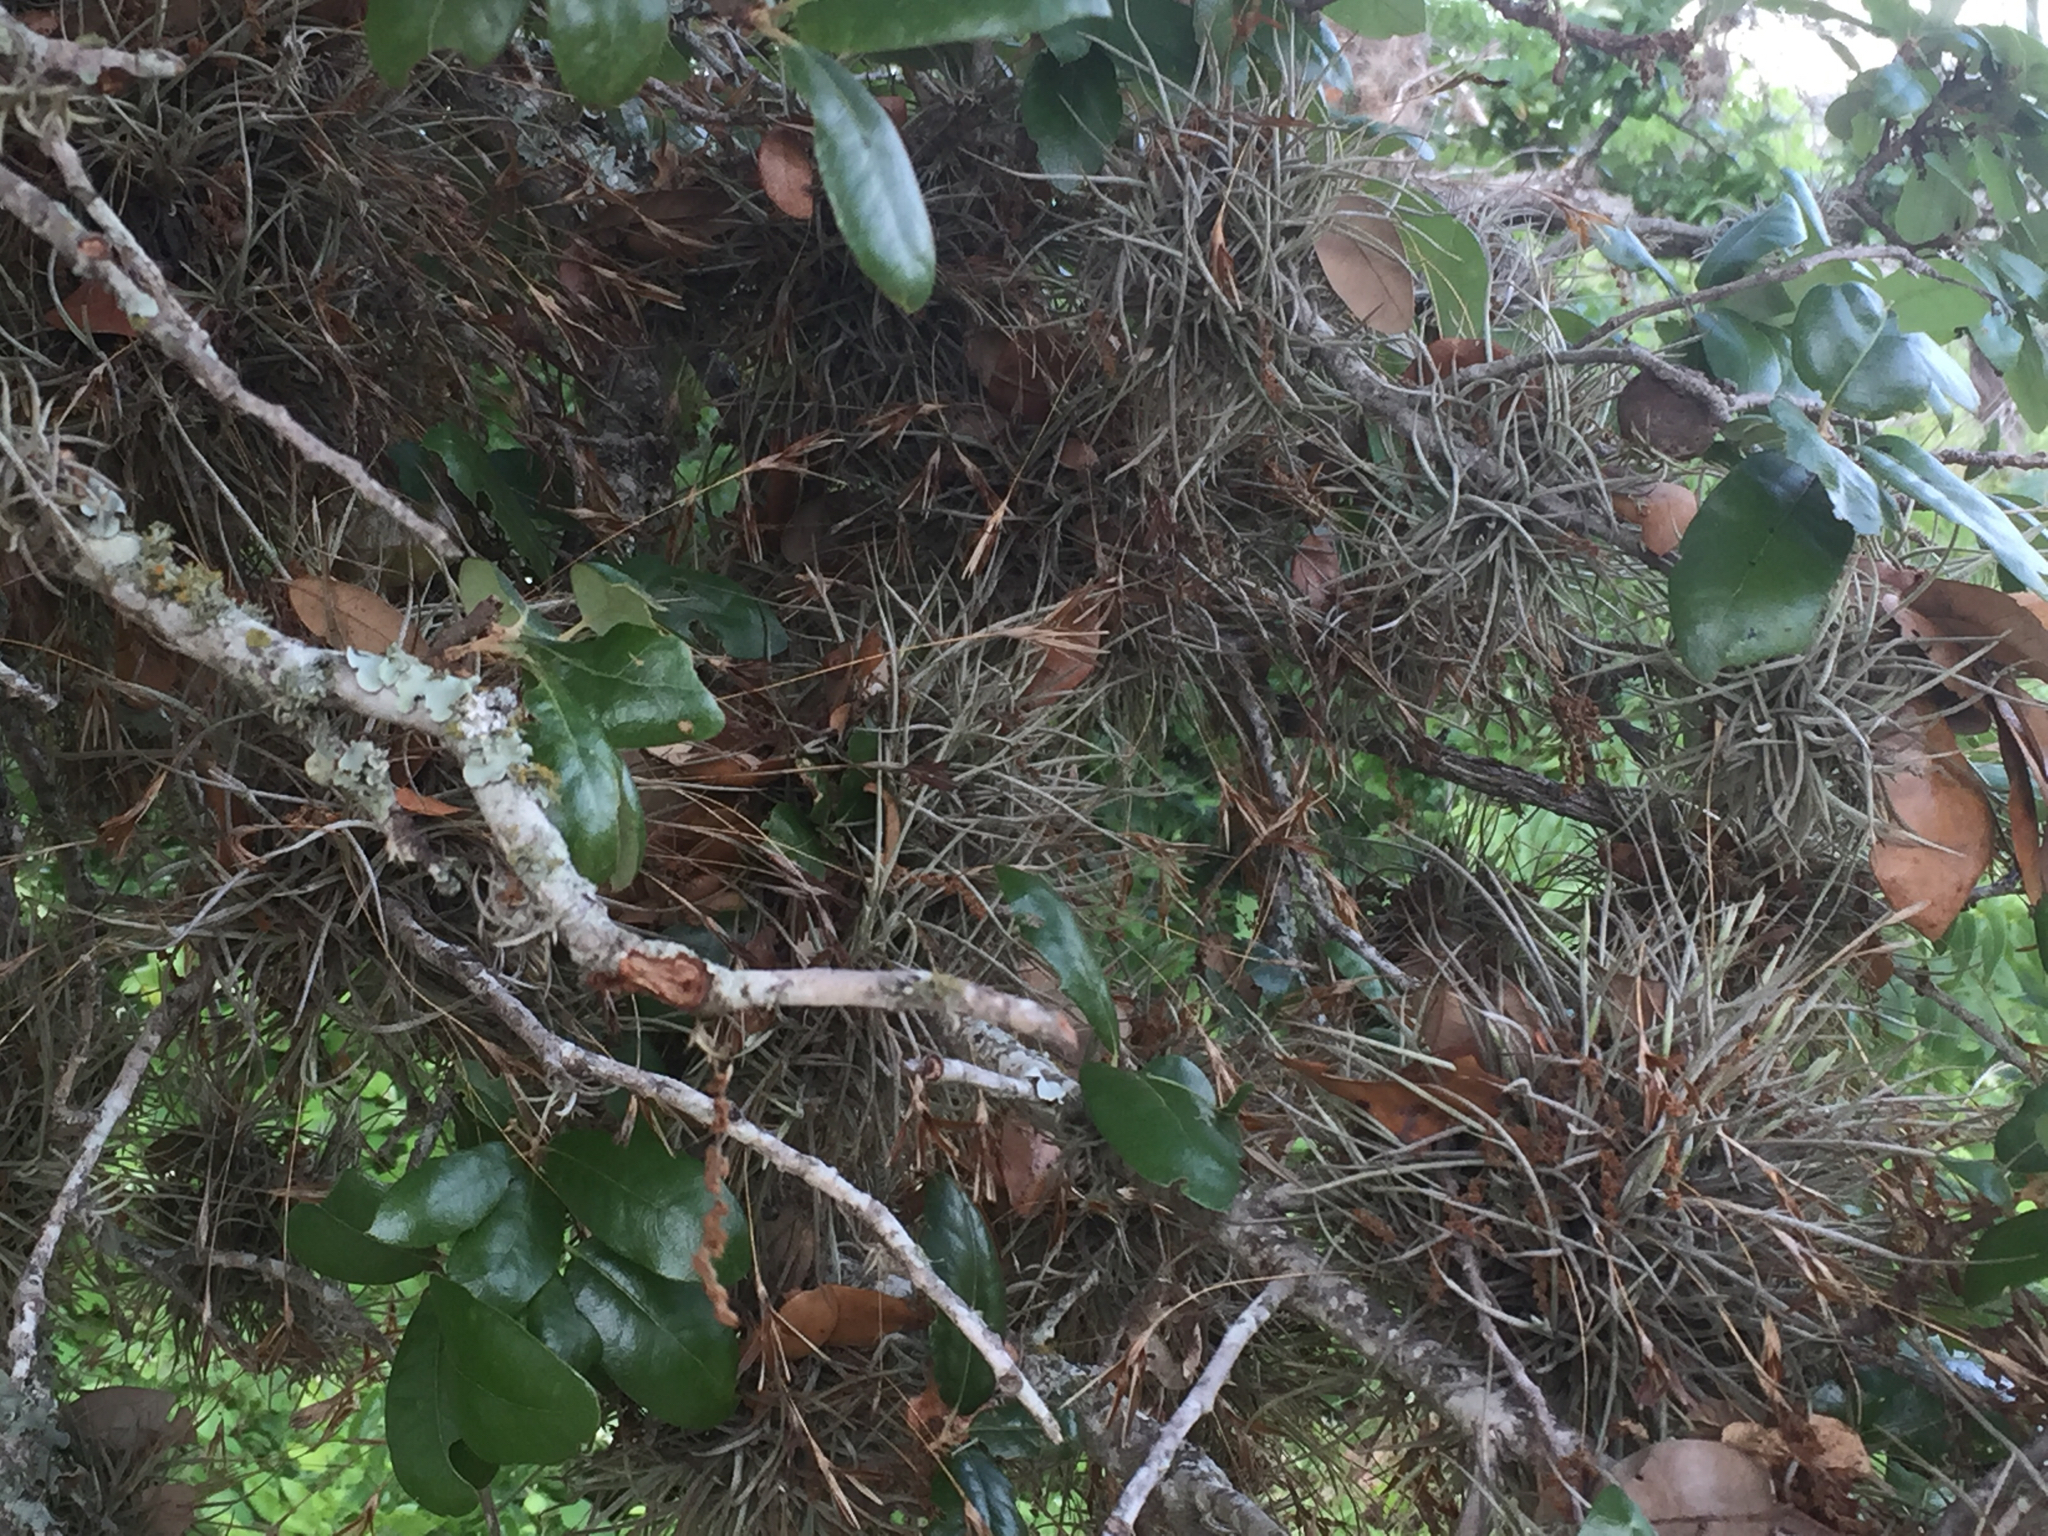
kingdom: Plantae
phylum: Tracheophyta
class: Liliopsida
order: Poales
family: Bromeliaceae
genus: Tillandsia
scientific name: Tillandsia recurvata
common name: Small ballmoss
